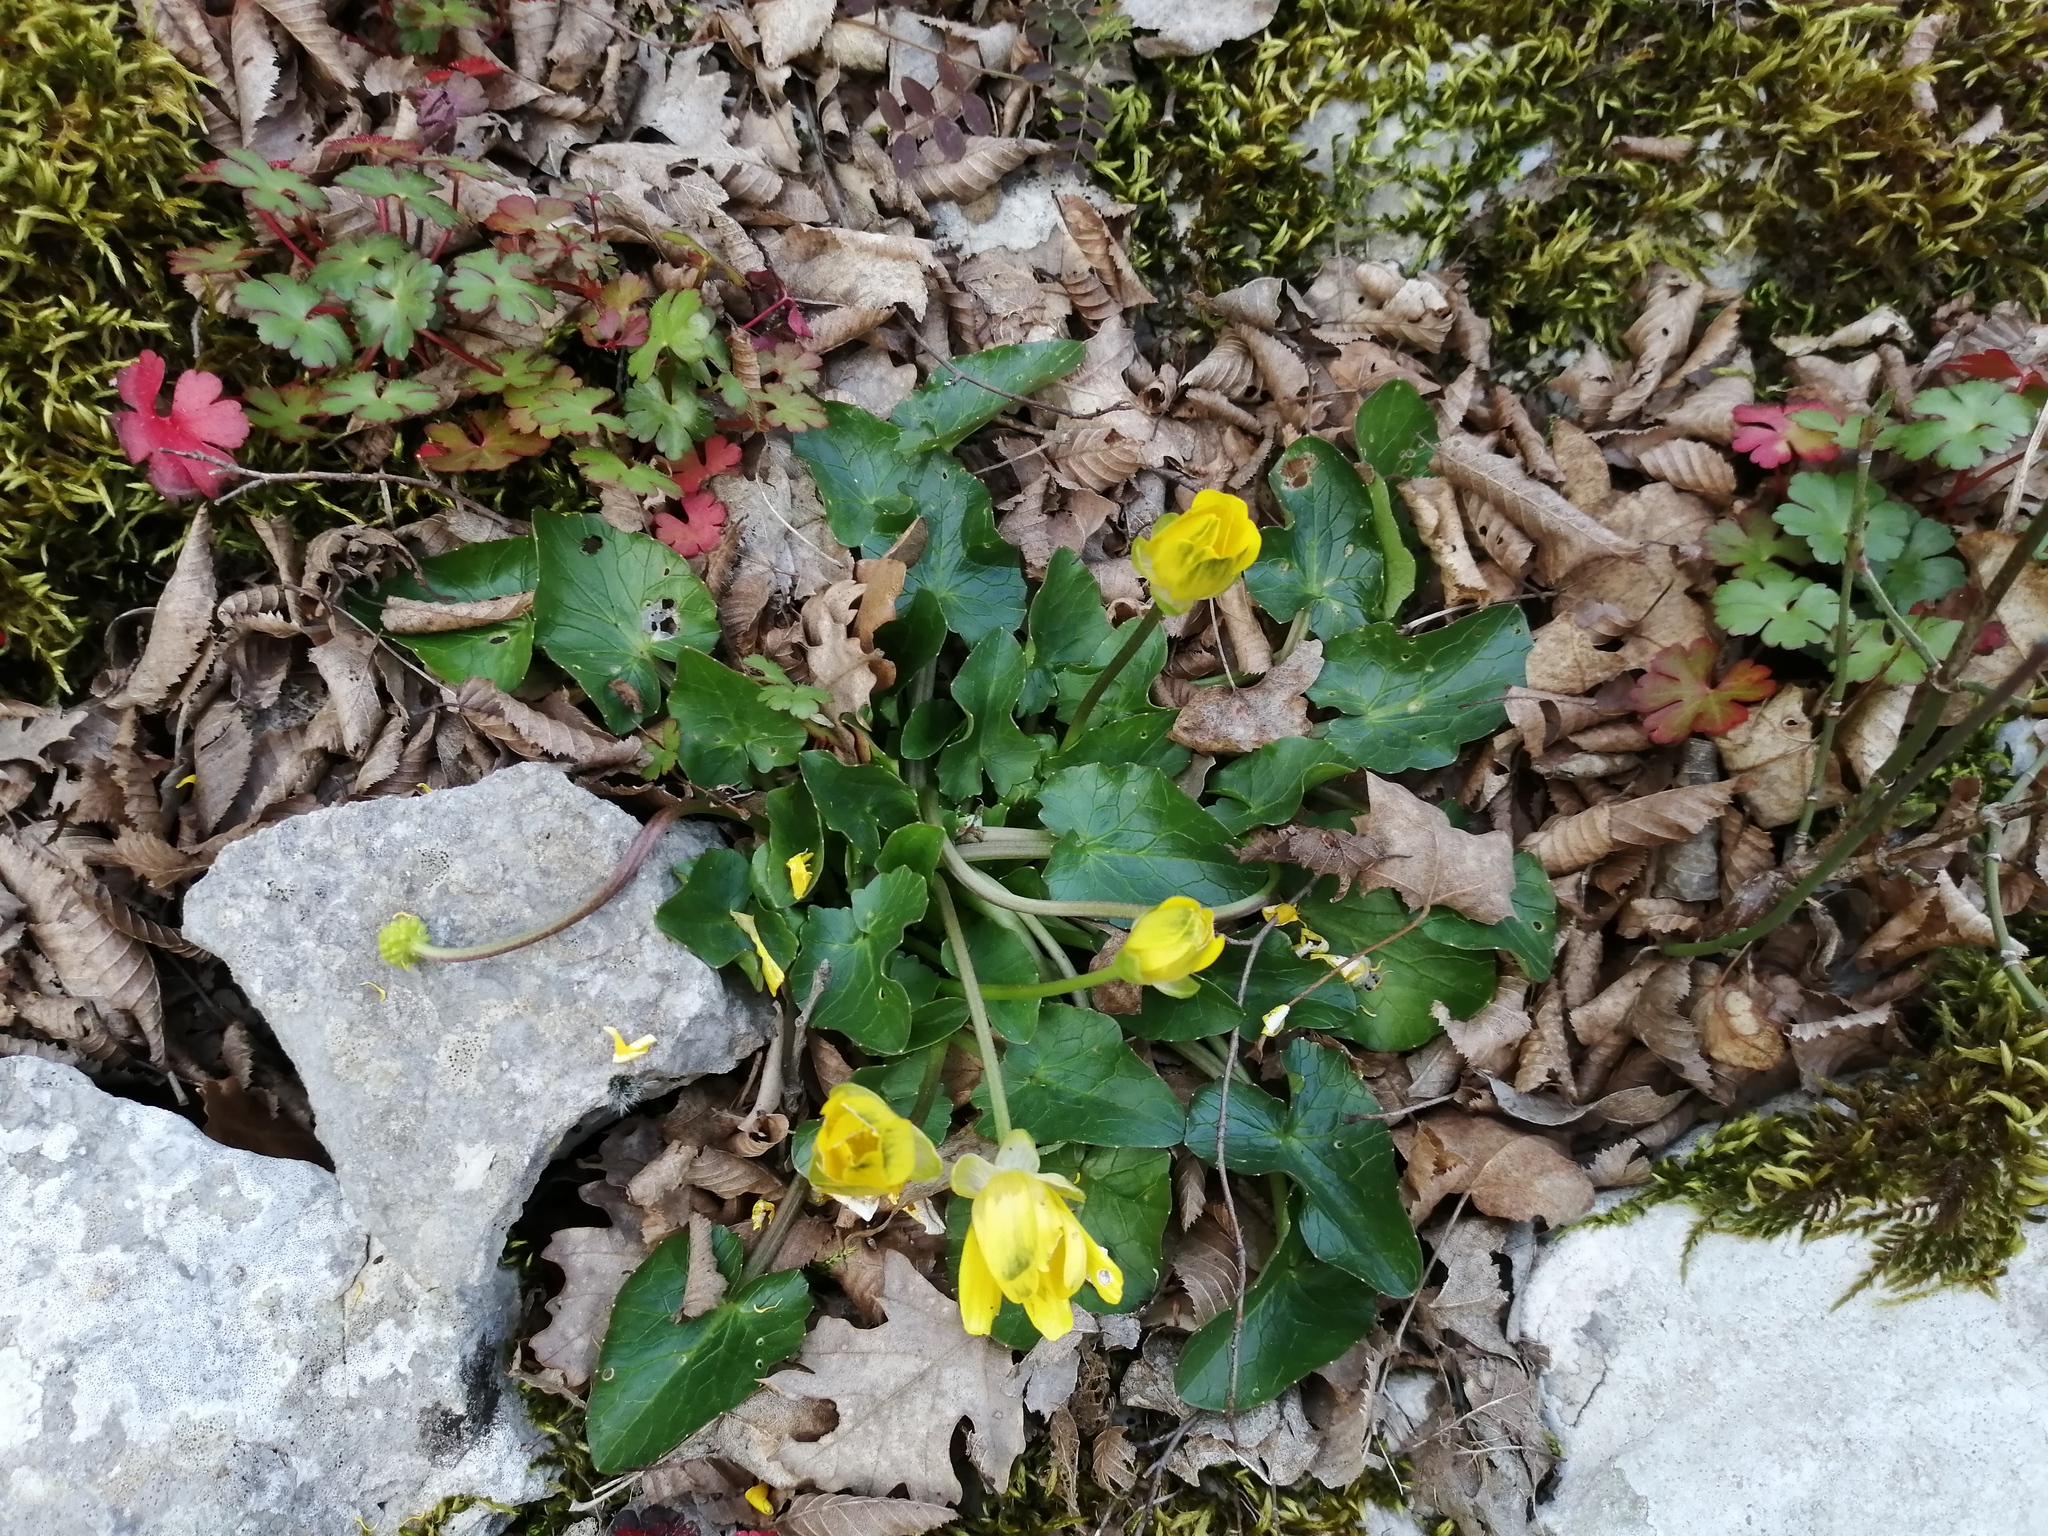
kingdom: Plantae
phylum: Tracheophyta
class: Magnoliopsida
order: Ranunculales
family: Ranunculaceae
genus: Ficaria
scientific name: Ficaria verna
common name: Lesser celandine
